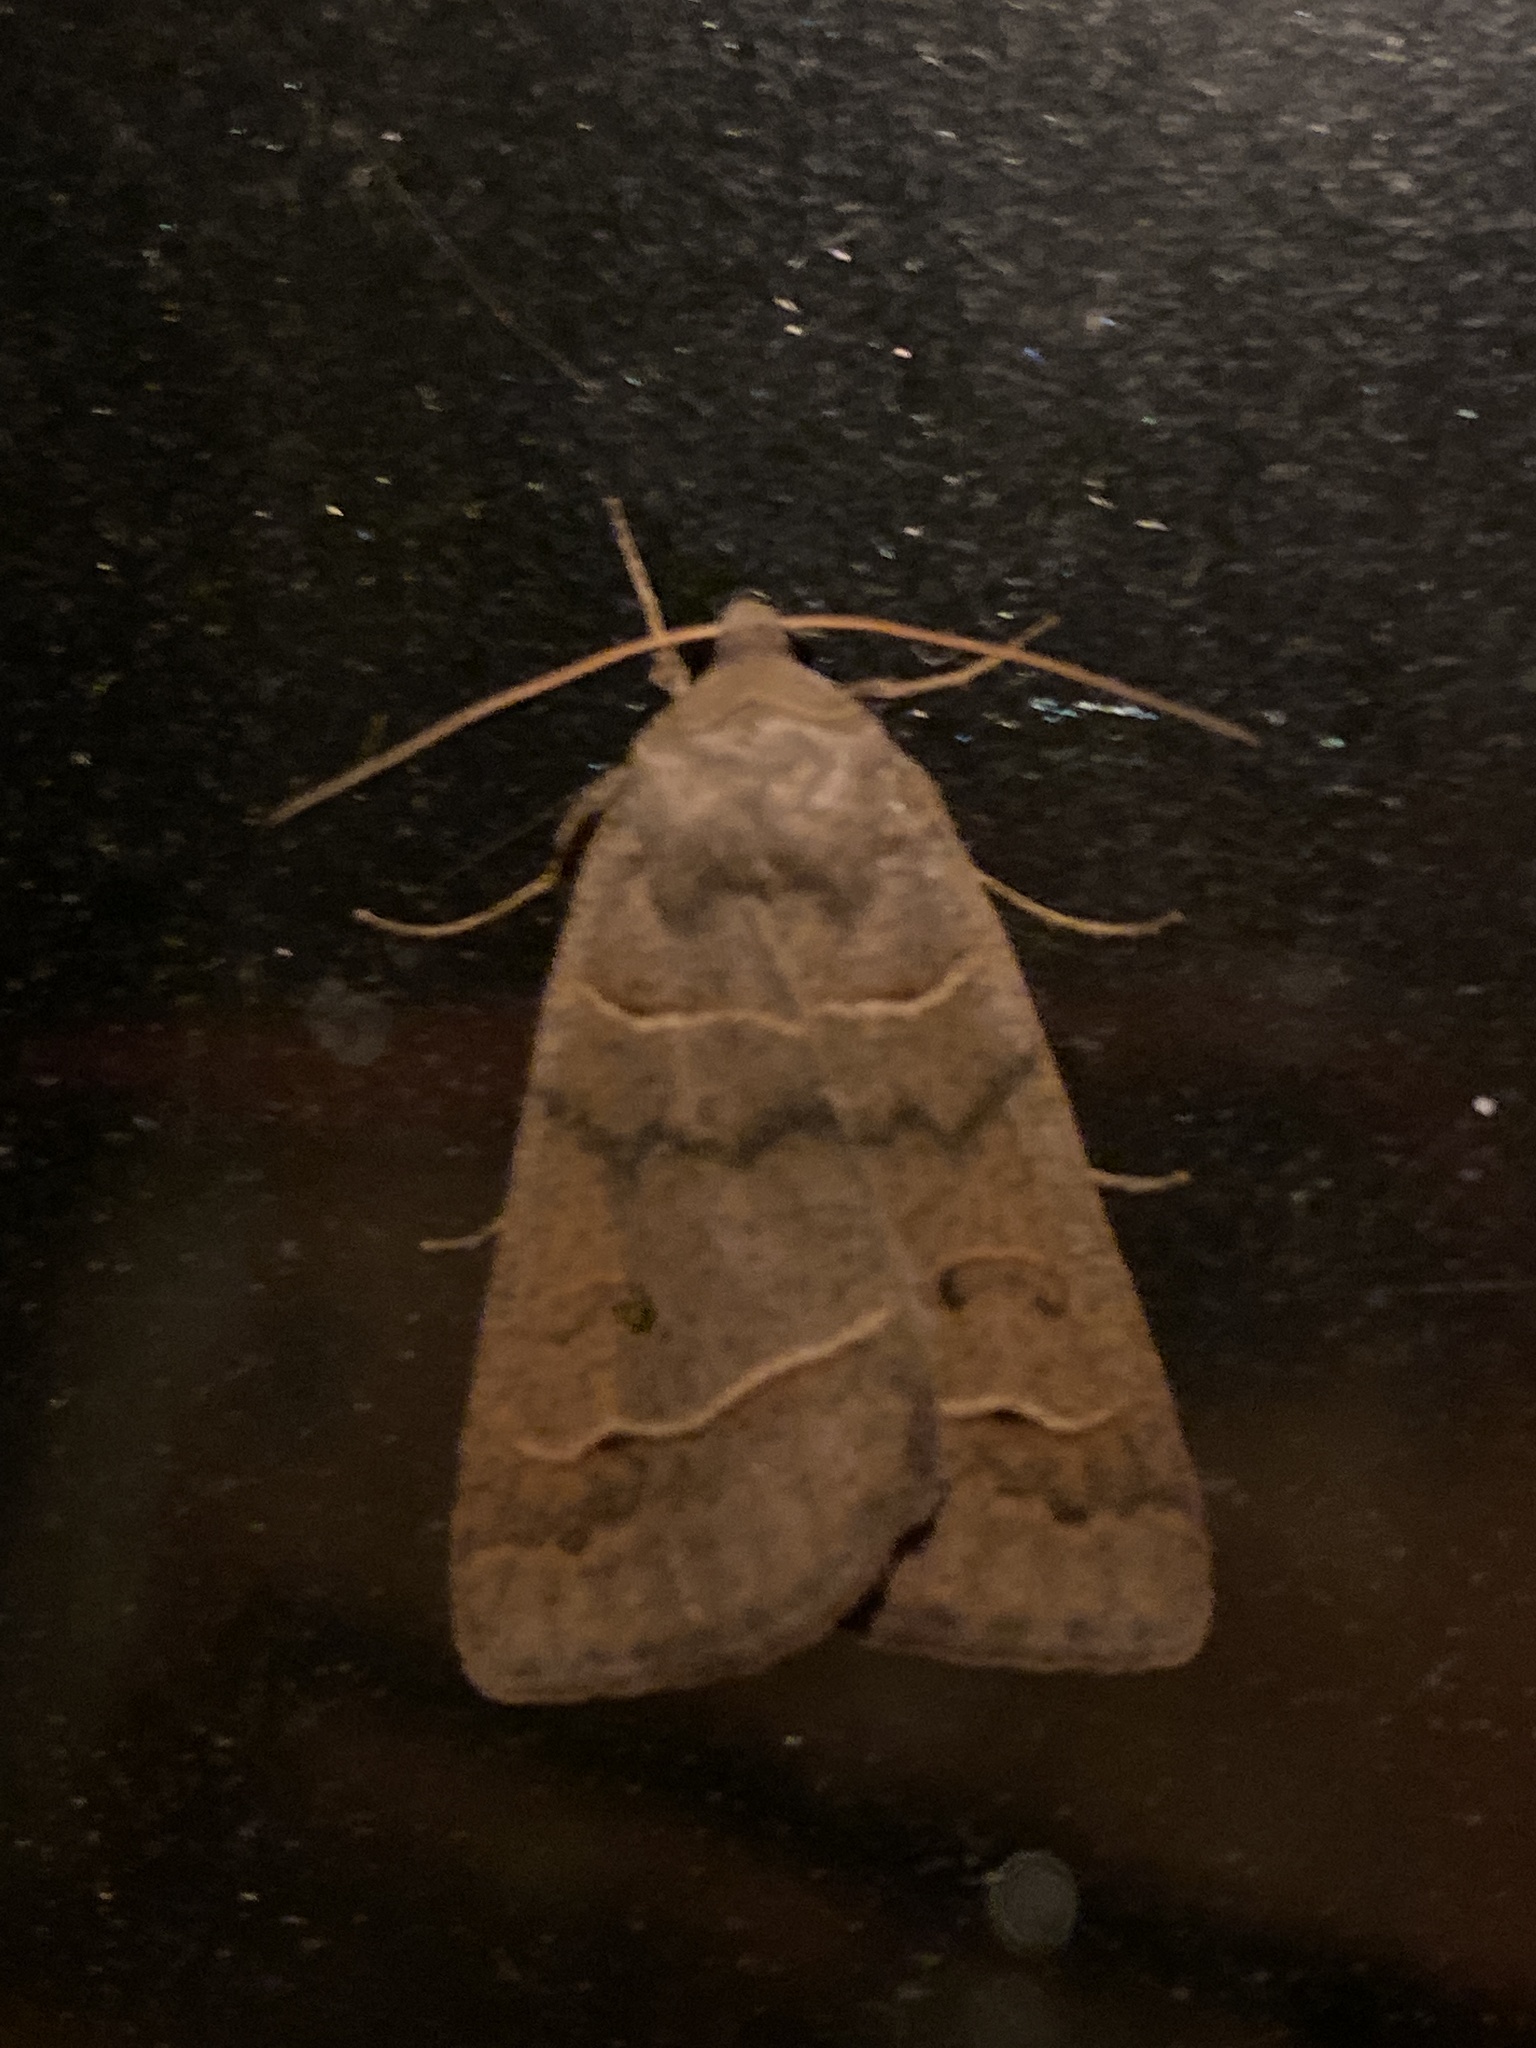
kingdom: Animalia
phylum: Arthropoda
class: Insecta
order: Lepidoptera
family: Erebidae
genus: Phoberia
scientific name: Phoberia atomaris
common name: Common oak moth
